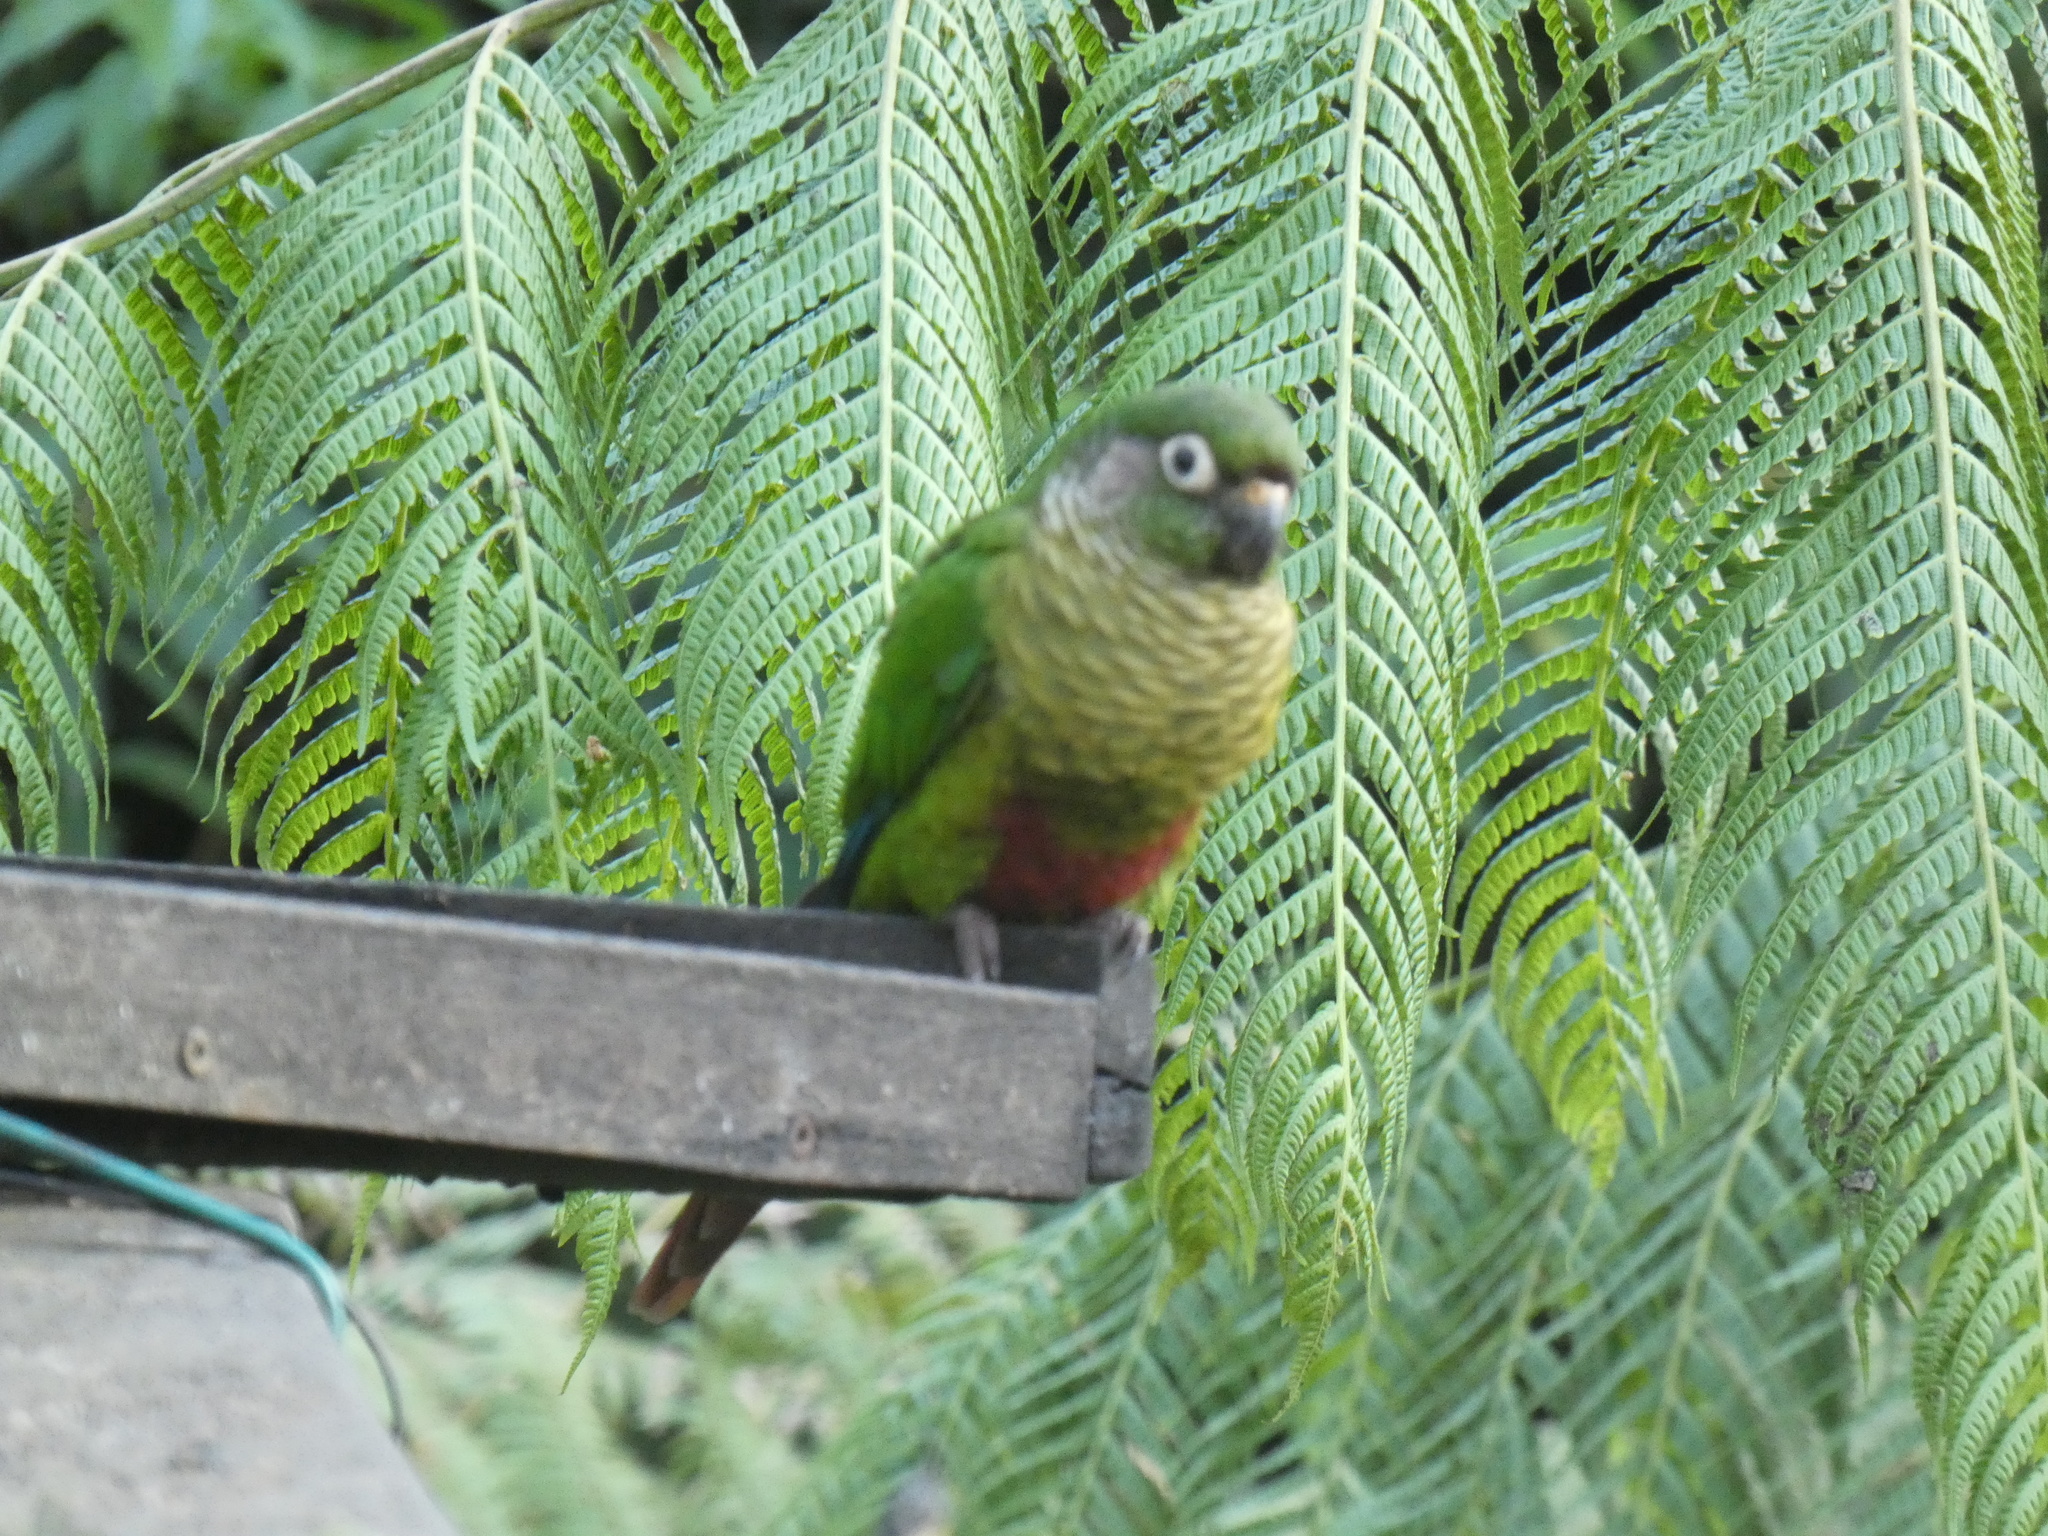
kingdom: Animalia
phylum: Chordata
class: Aves
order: Psittaciformes
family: Psittacidae
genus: Pyrrhura
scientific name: Pyrrhura frontalis
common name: Maroon-bellied parakeet
